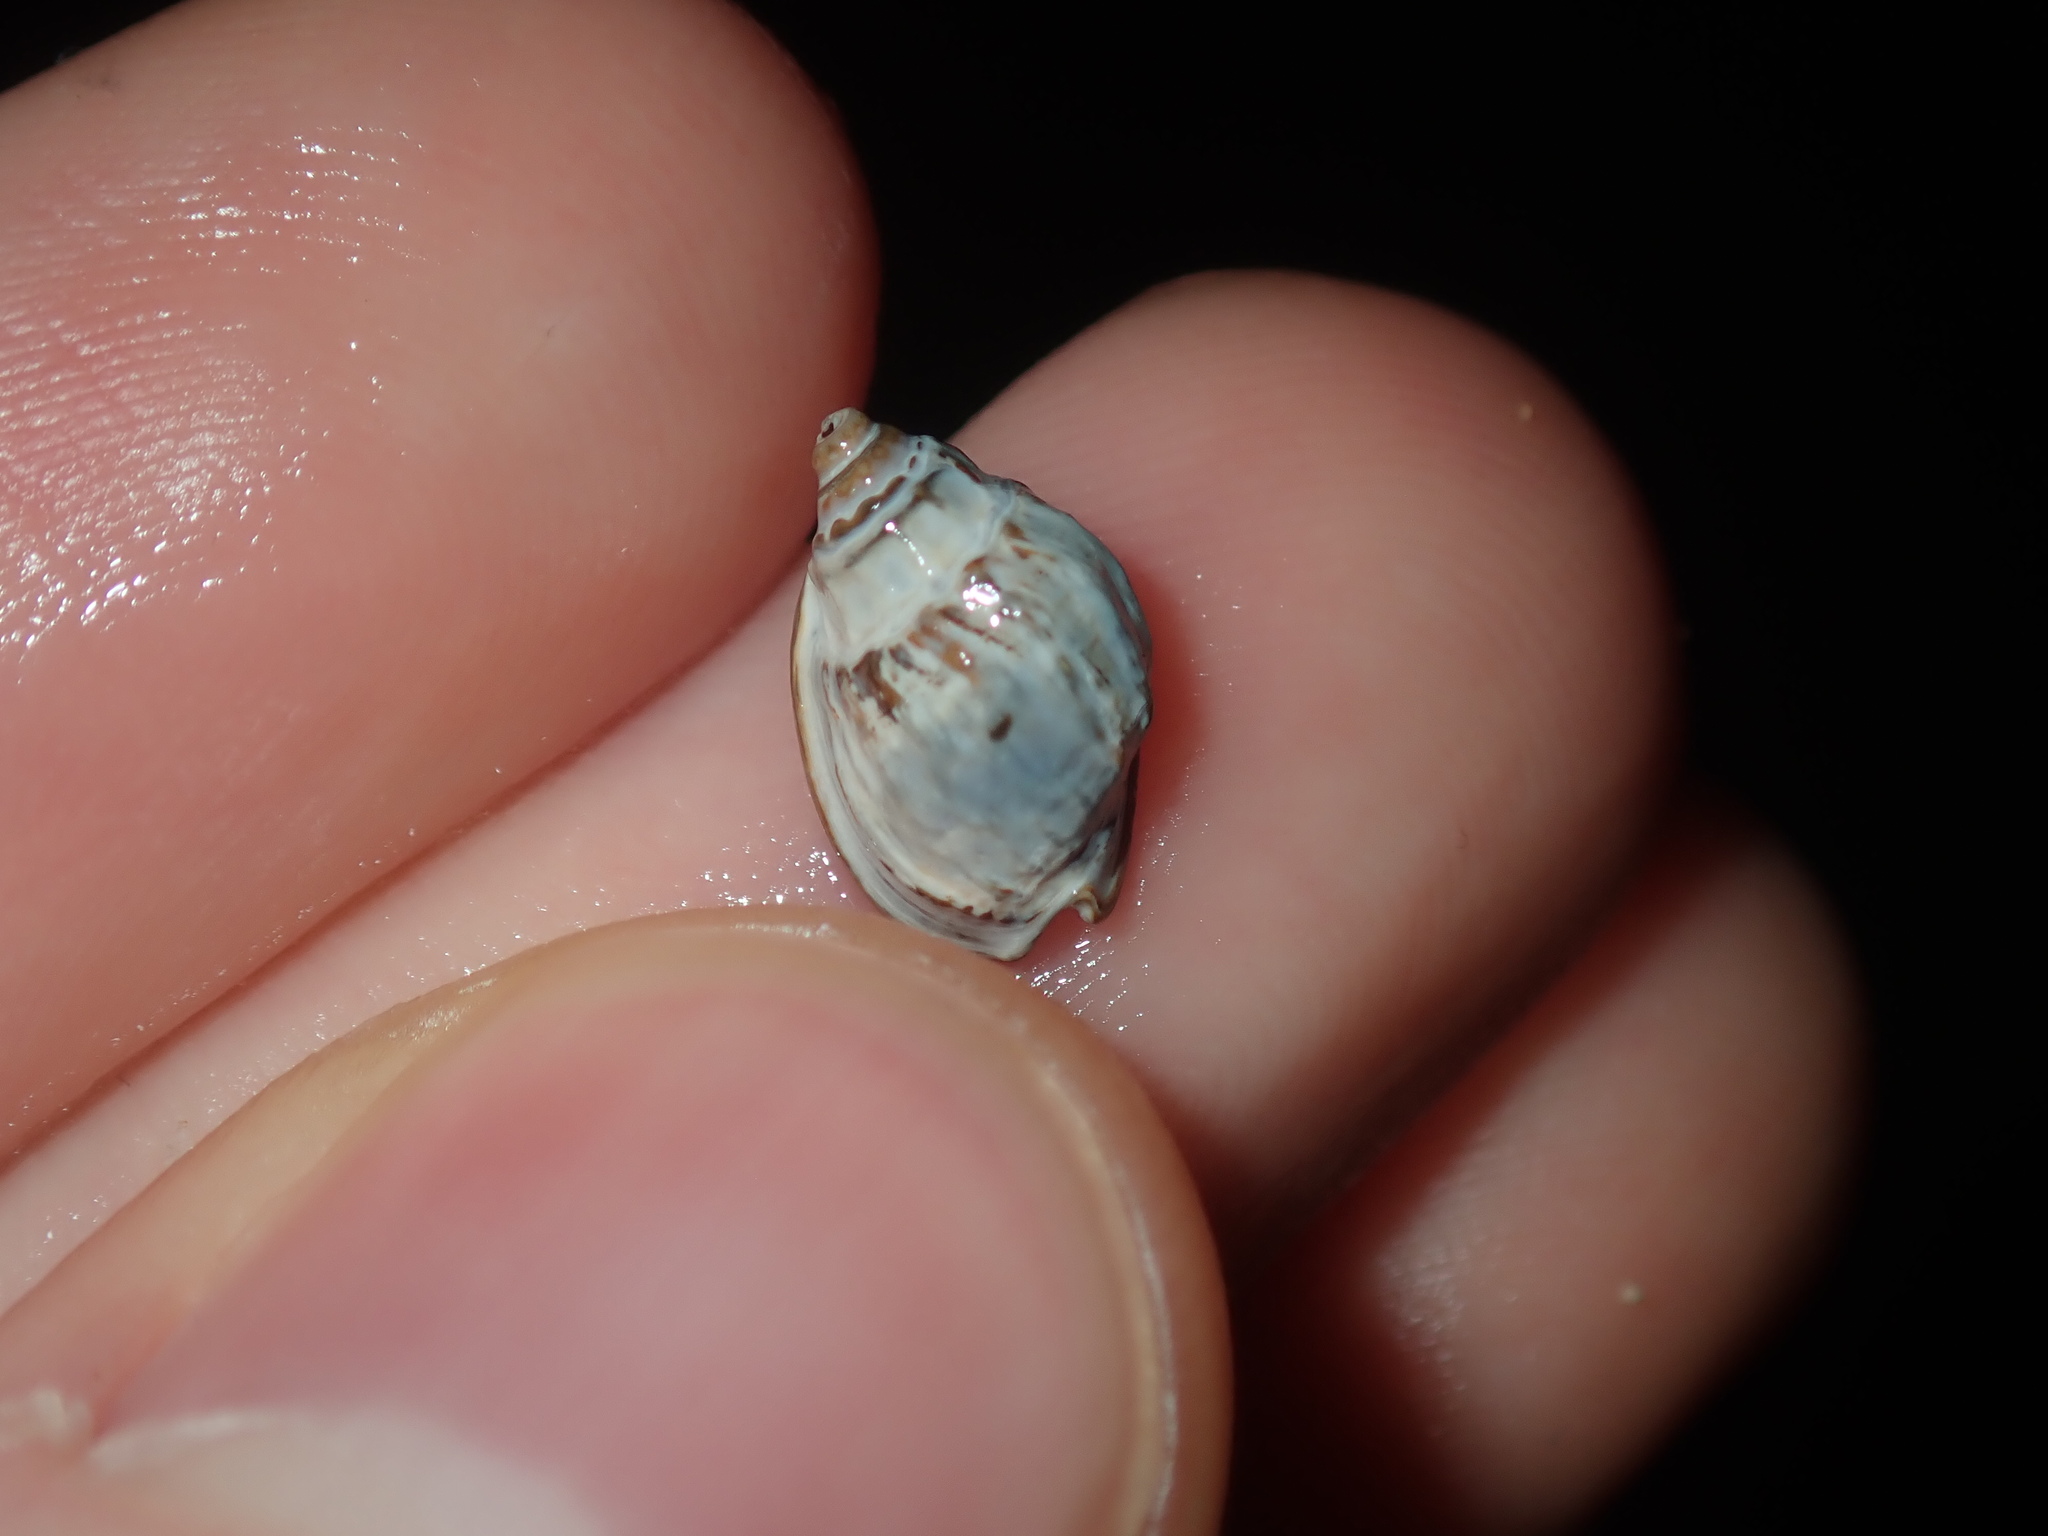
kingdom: Animalia
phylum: Mollusca
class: Gastropoda
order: Neogastropoda
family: Nassariidae
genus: Nassarius
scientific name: Nassarius jonasii
